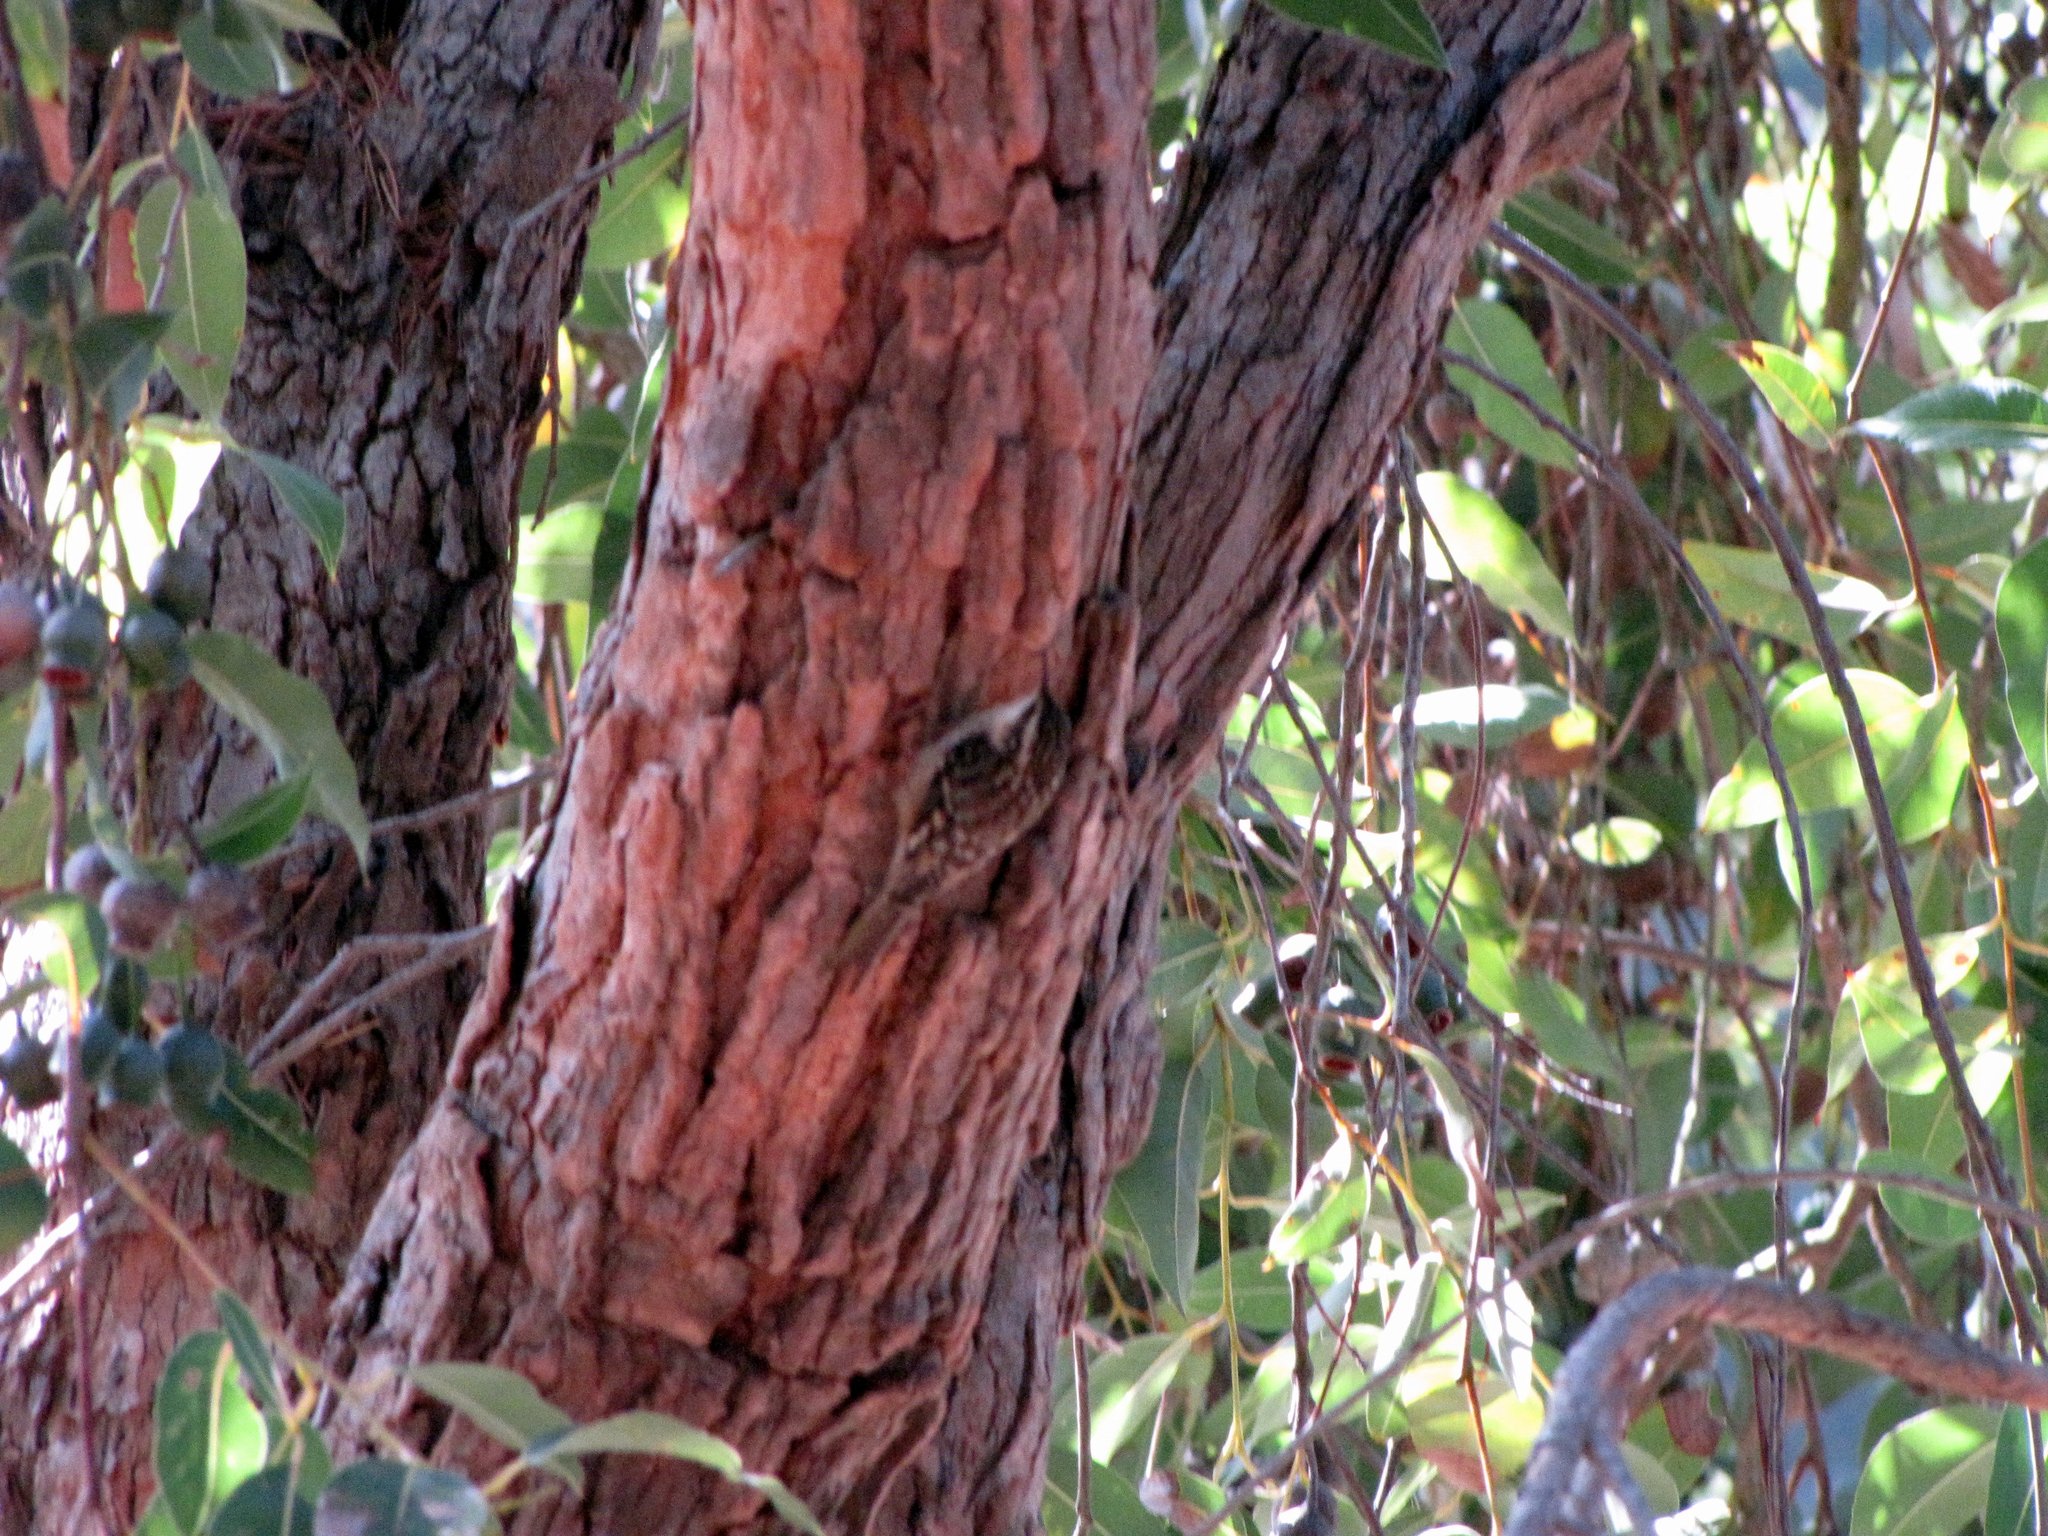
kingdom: Animalia
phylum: Chordata
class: Aves
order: Passeriformes
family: Certhiidae
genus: Certhia
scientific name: Certhia americana
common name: Brown creeper
